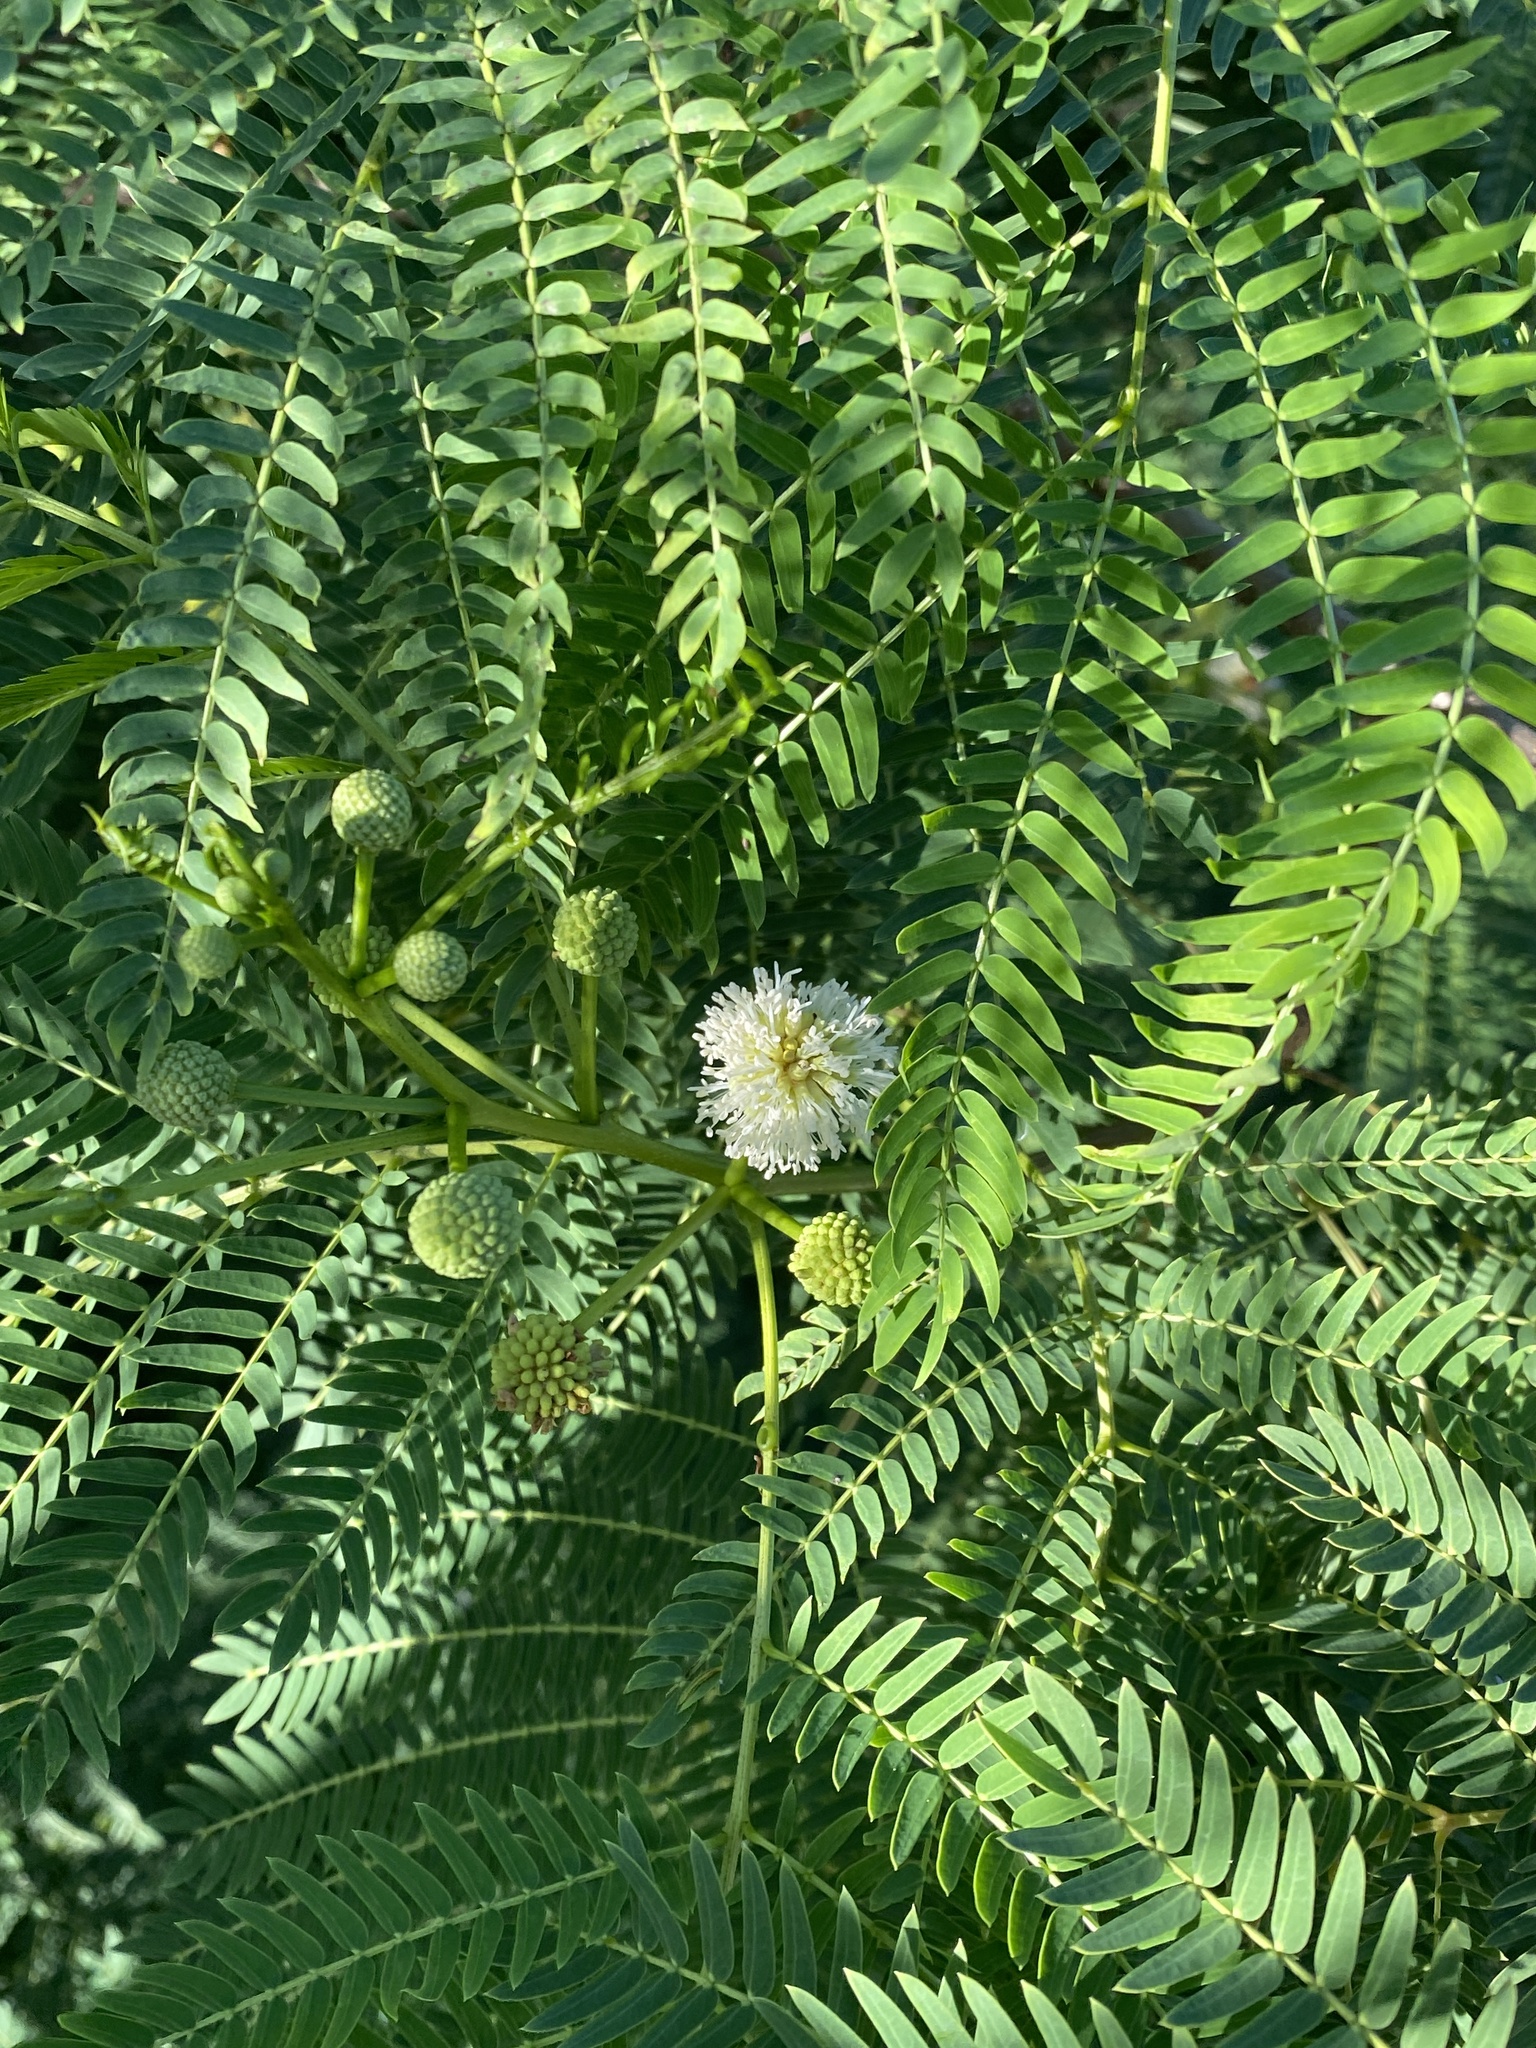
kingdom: Plantae
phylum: Tracheophyta
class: Magnoliopsida
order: Fabales
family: Fabaceae
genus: Leucaena
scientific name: Leucaena leucocephala
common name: White leadtree
